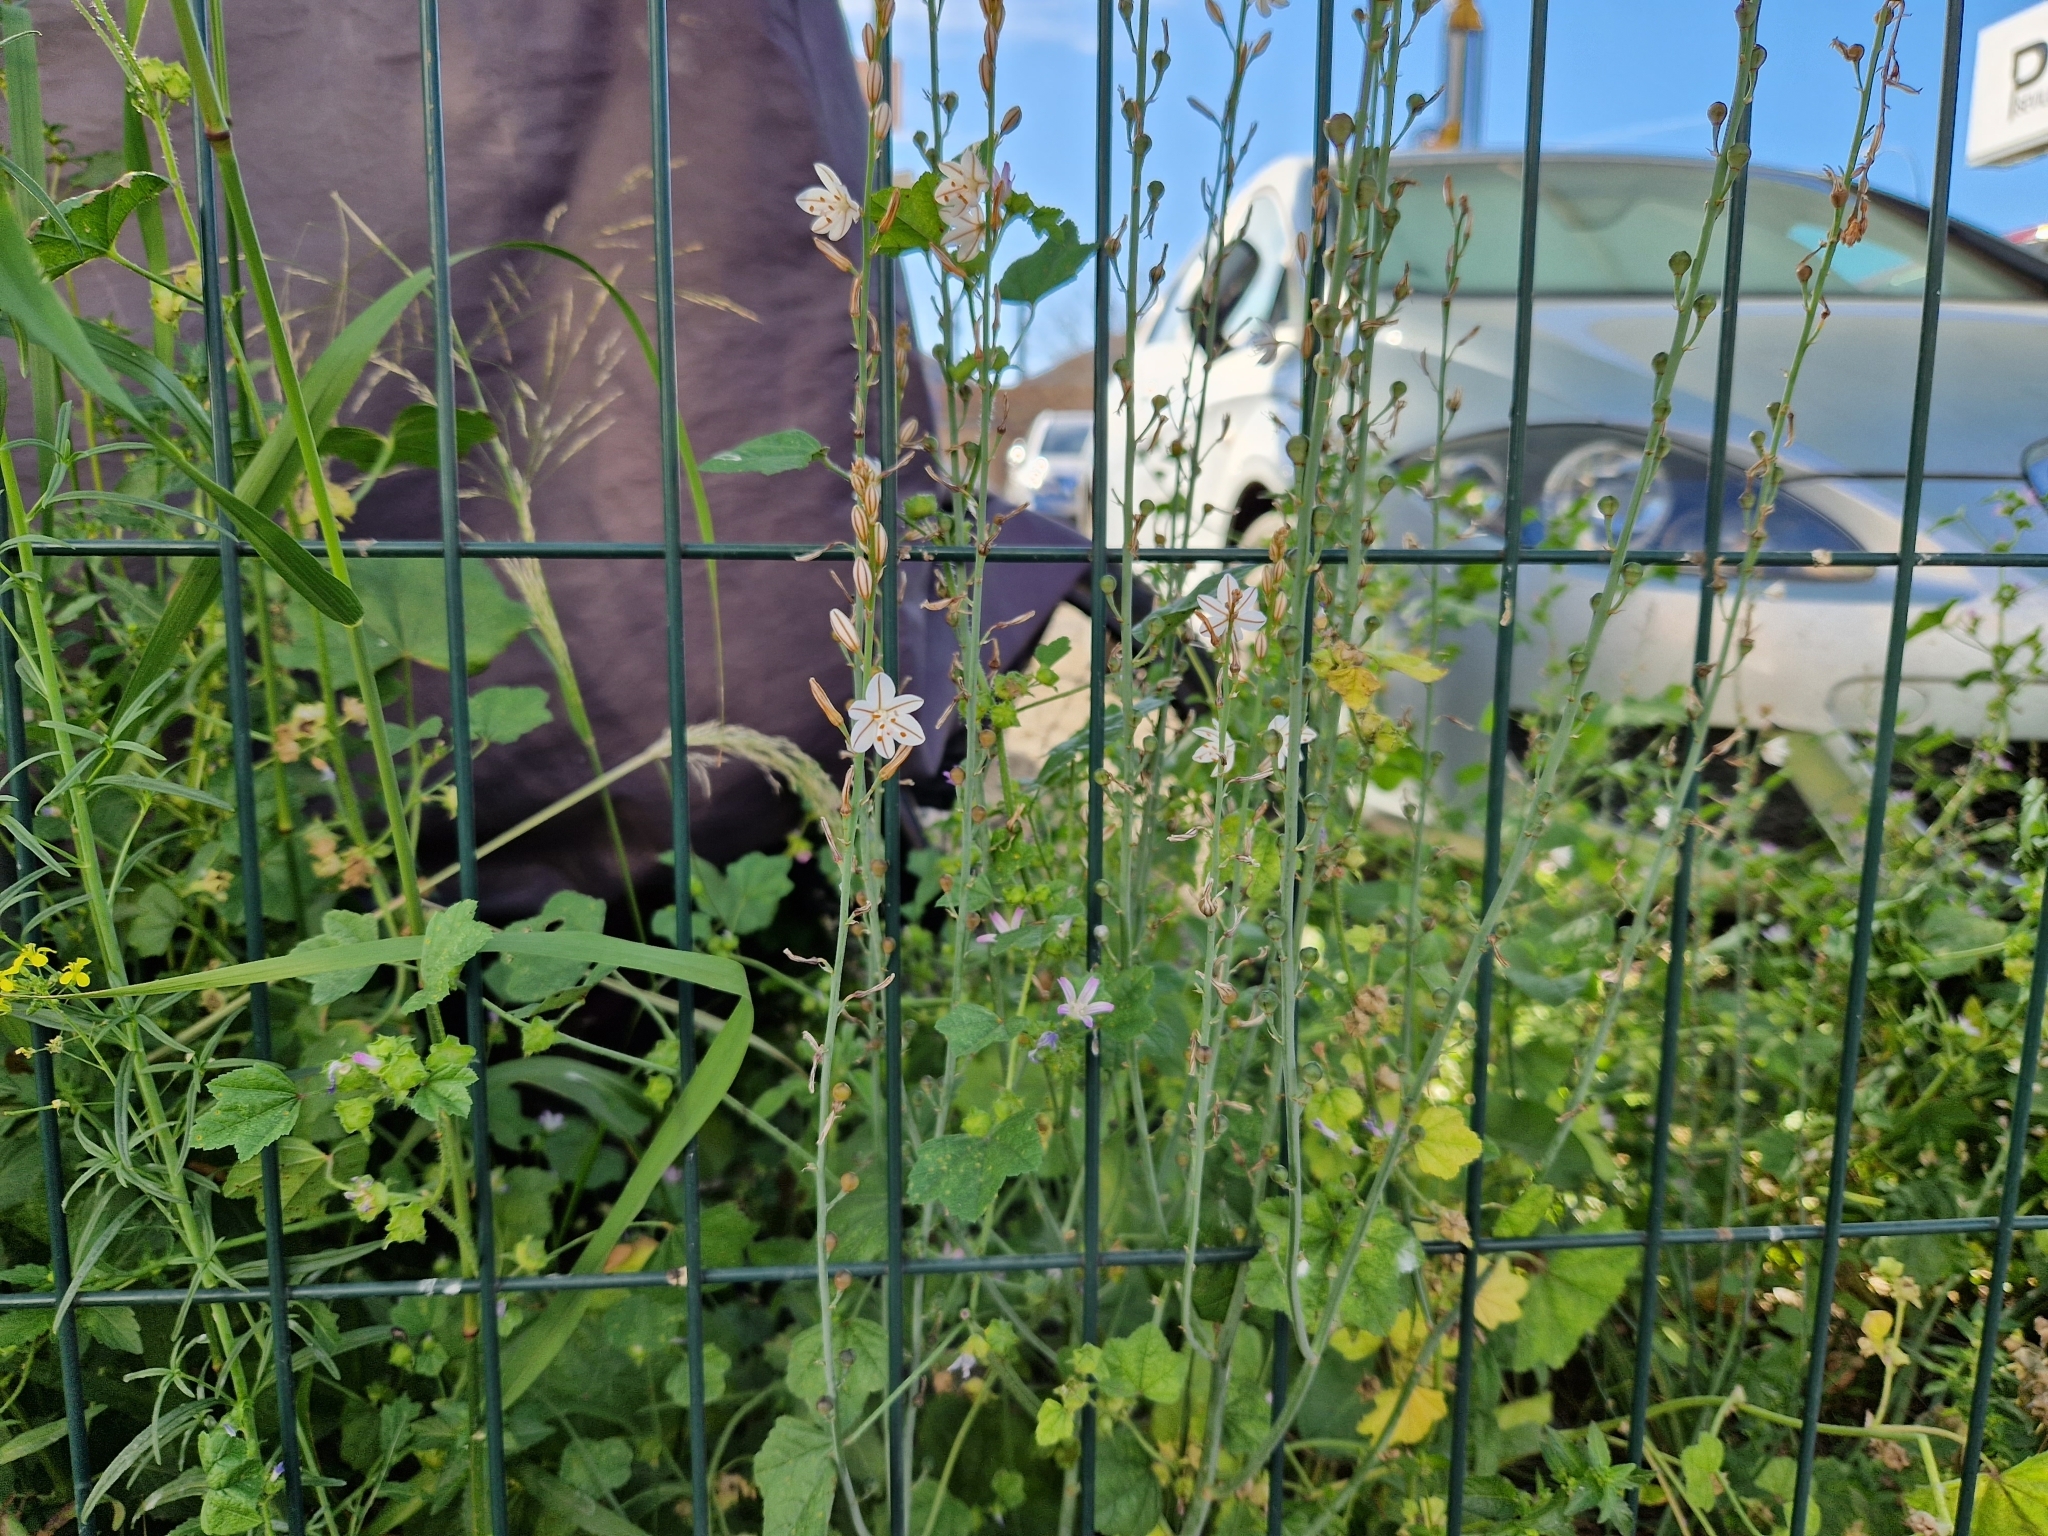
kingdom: Plantae
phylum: Tracheophyta
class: Liliopsida
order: Asparagales
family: Asphodelaceae
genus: Asphodelus
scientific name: Asphodelus fistulosus
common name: Onionweed
